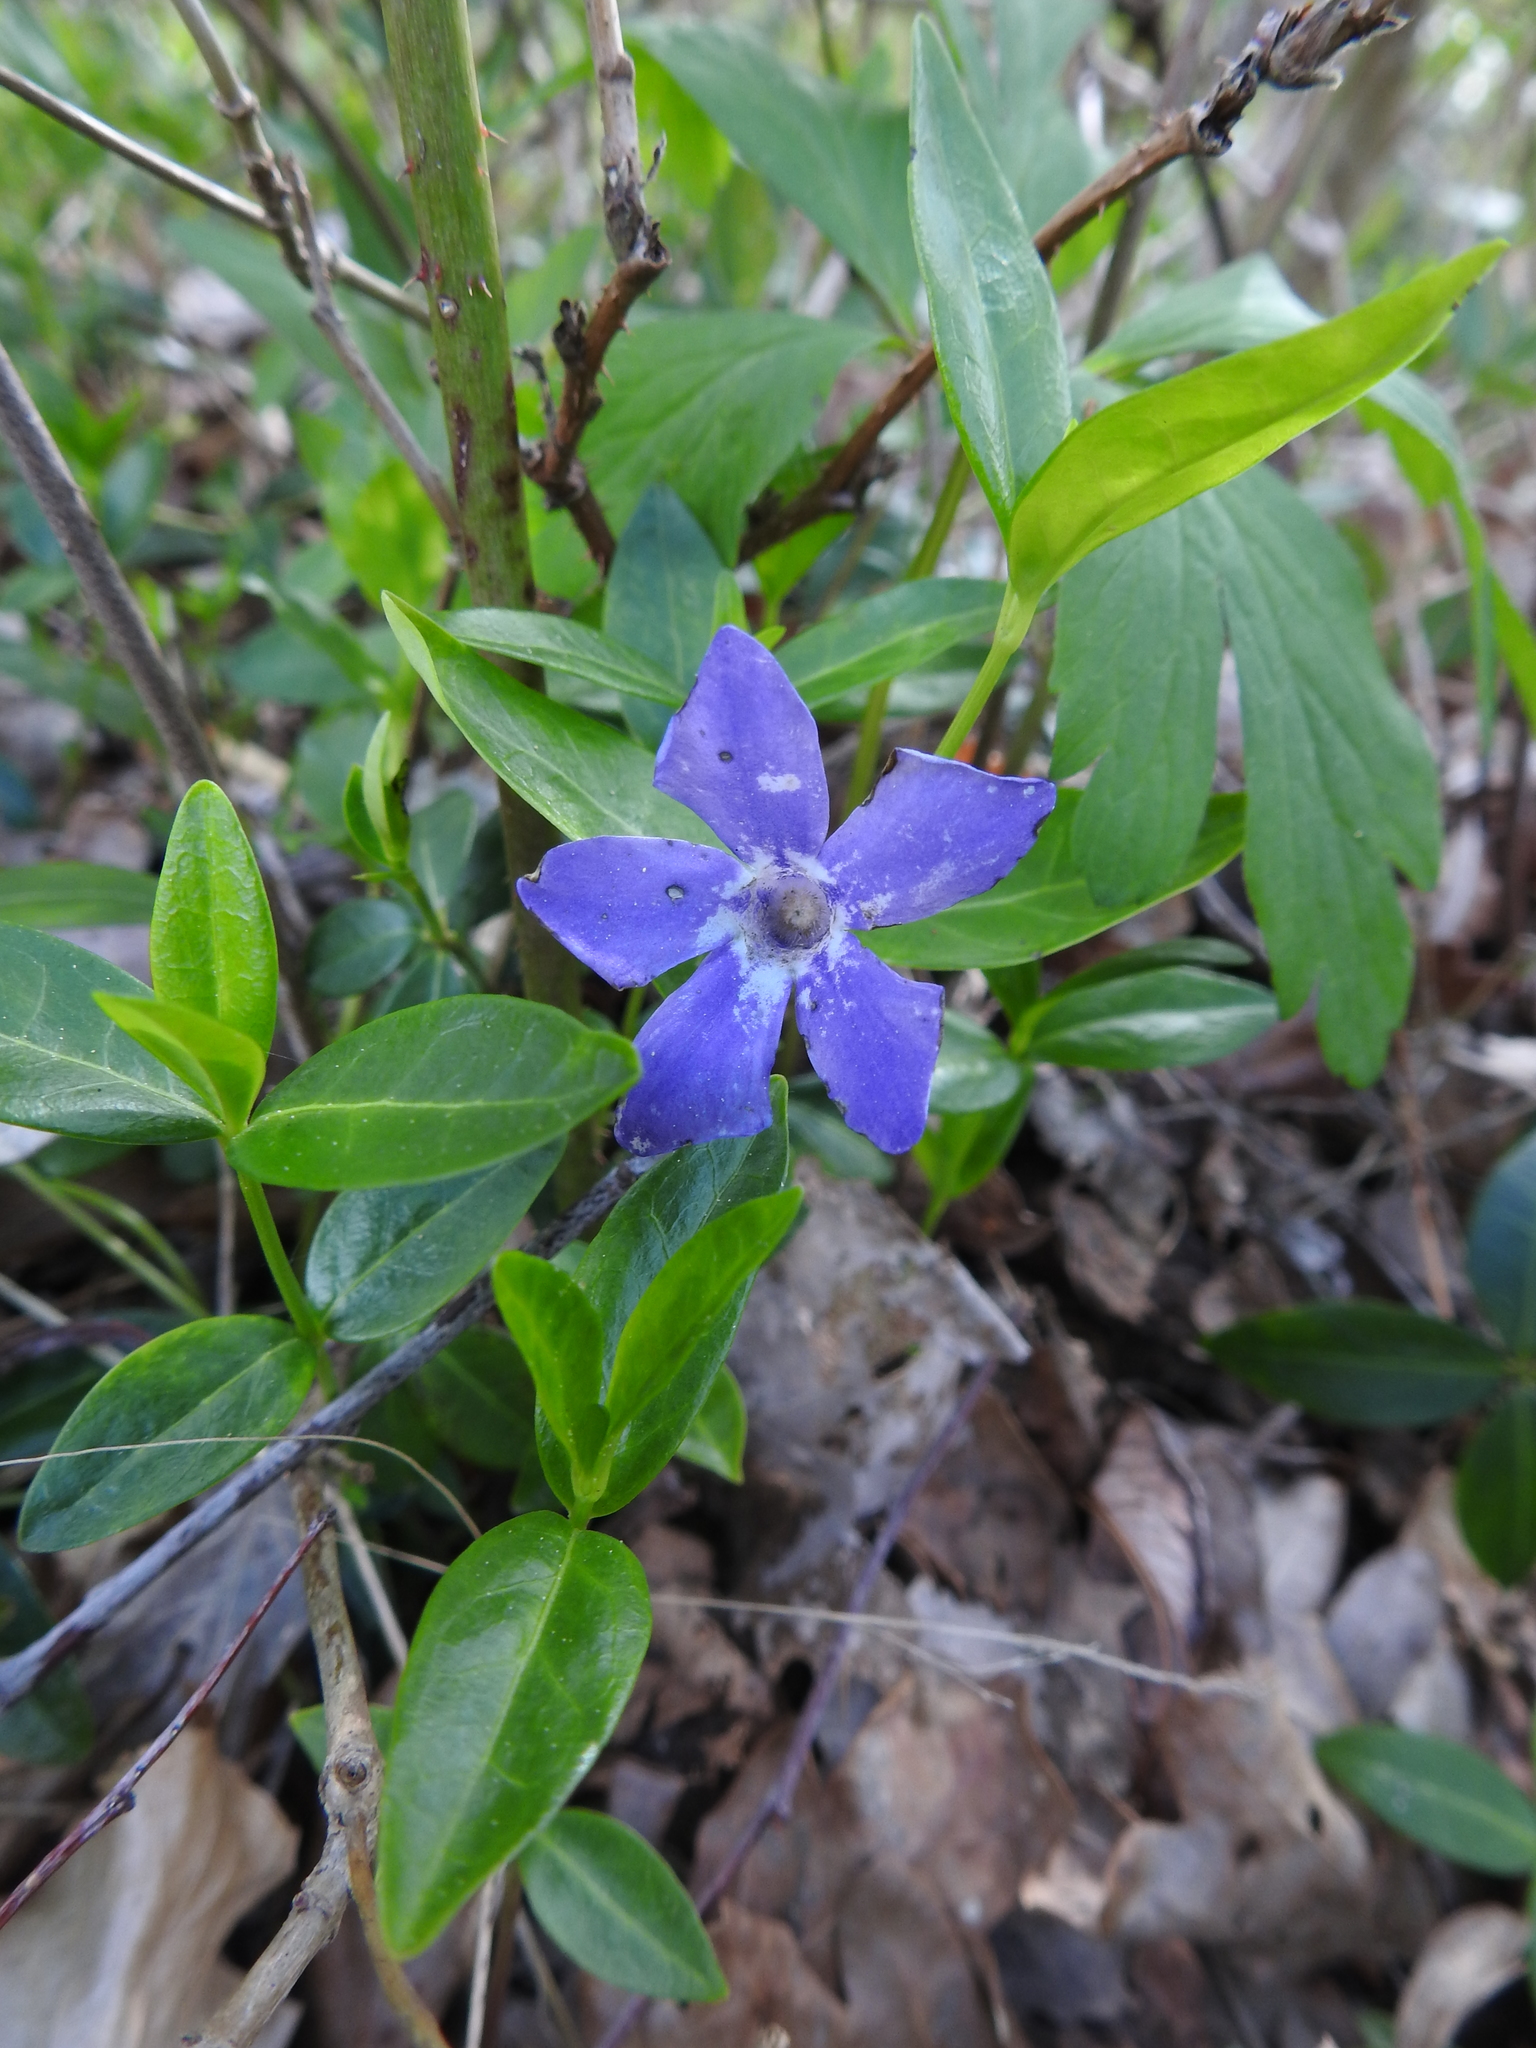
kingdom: Plantae
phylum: Tracheophyta
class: Magnoliopsida
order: Gentianales
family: Apocynaceae
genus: Vinca
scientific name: Vinca minor
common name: Lesser periwinkle
